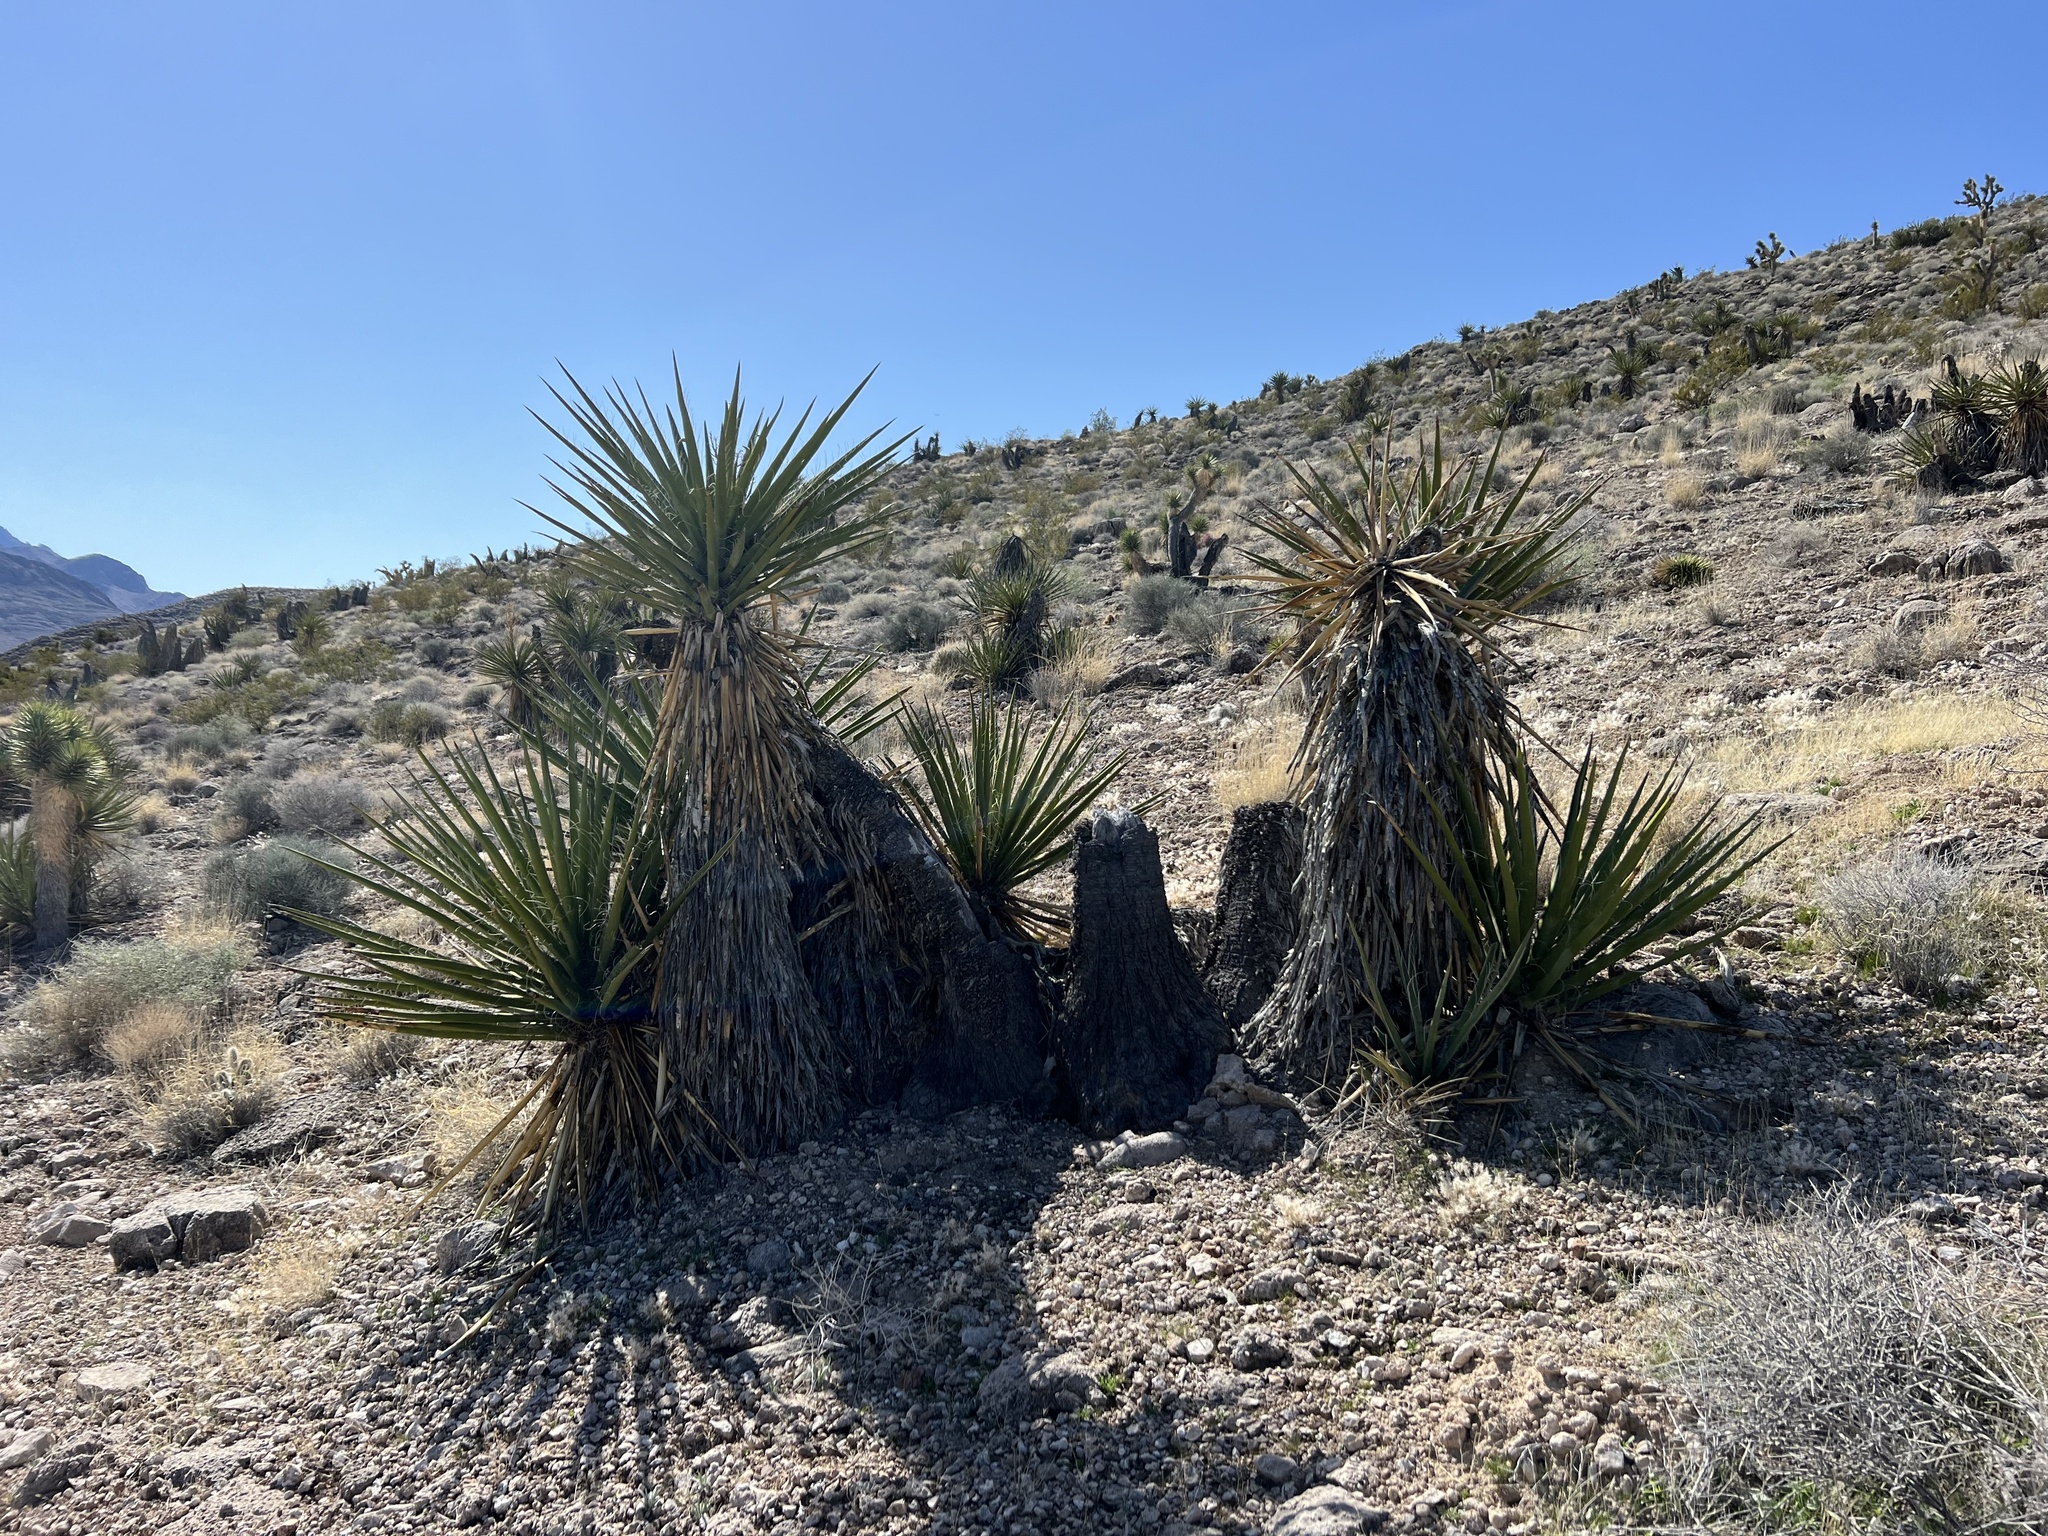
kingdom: Plantae
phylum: Tracheophyta
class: Liliopsida
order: Asparagales
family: Asparagaceae
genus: Yucca
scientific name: Yucca schidigera
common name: Mojave yucca
